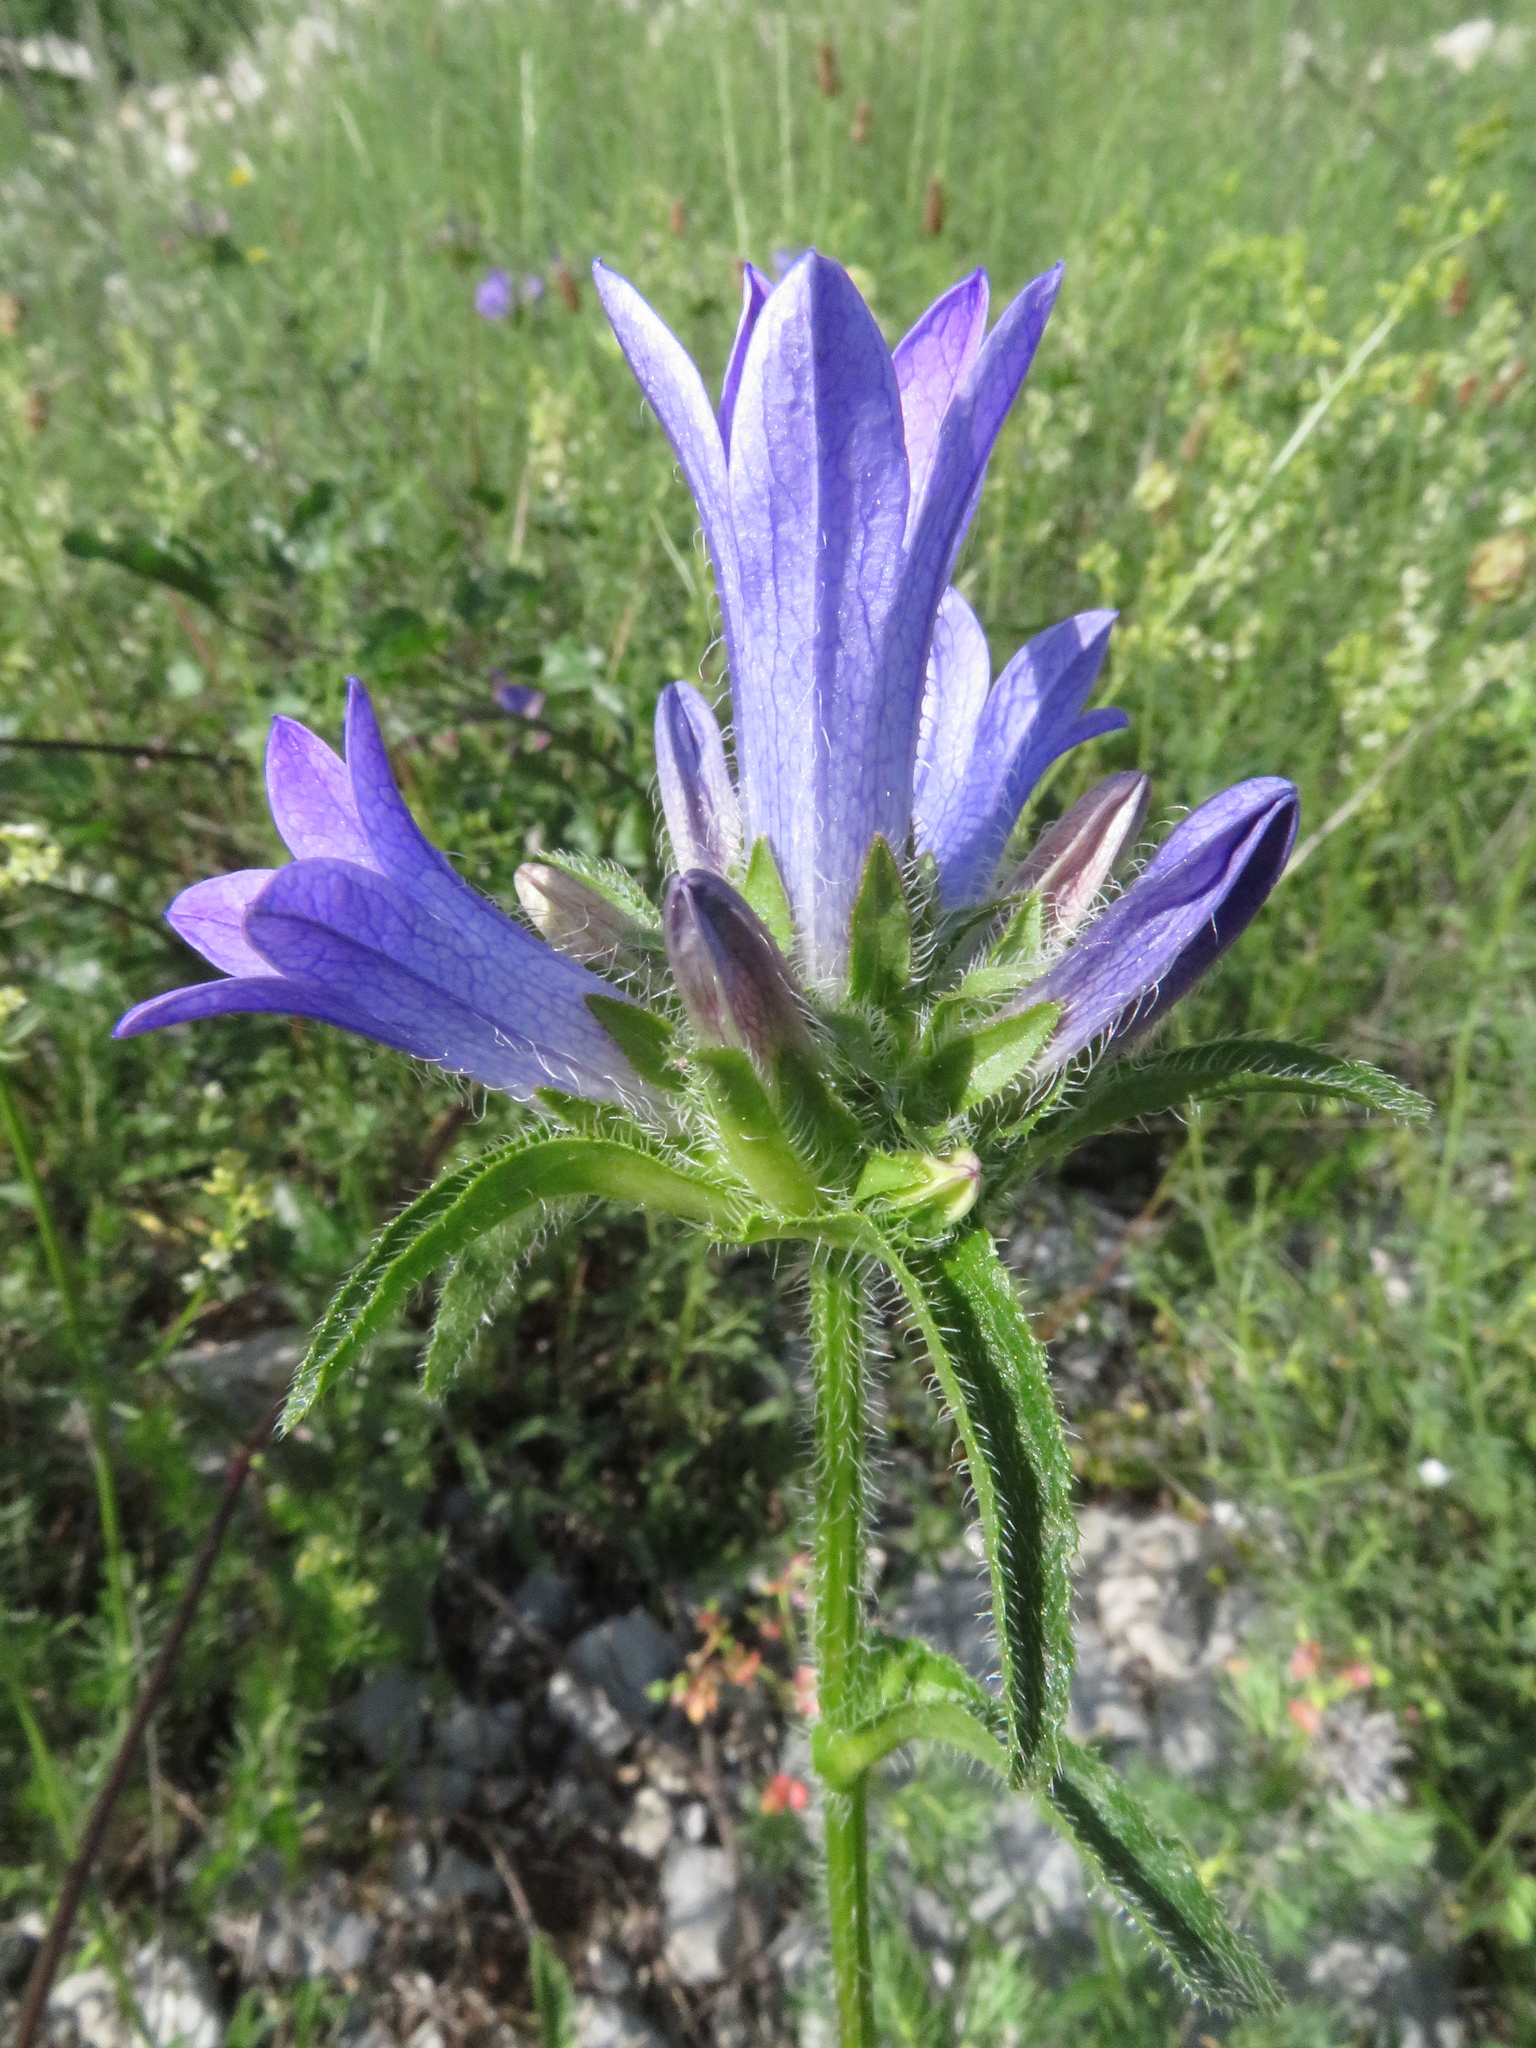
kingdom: Plantae
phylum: Tracheophyta
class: Magnoliopsida
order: Asterales
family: Campanulaceae
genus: Campanula
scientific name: Campanula lingulata
